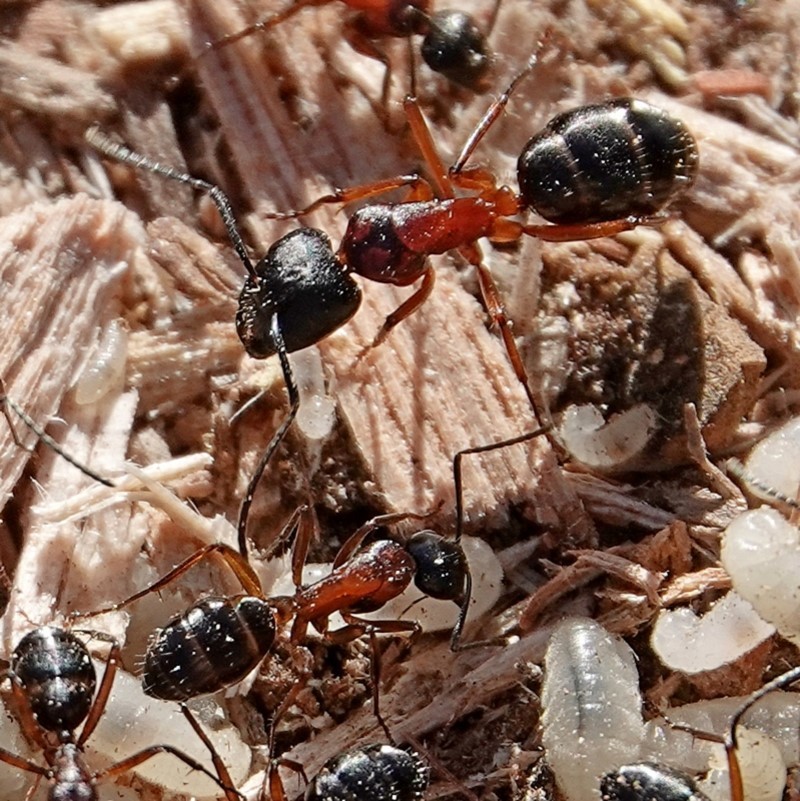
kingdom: Animalia
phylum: Arthropoda
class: Insecta
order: Hymenoptera
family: Formicidae
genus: Camponotus
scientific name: Camponotus innexus
